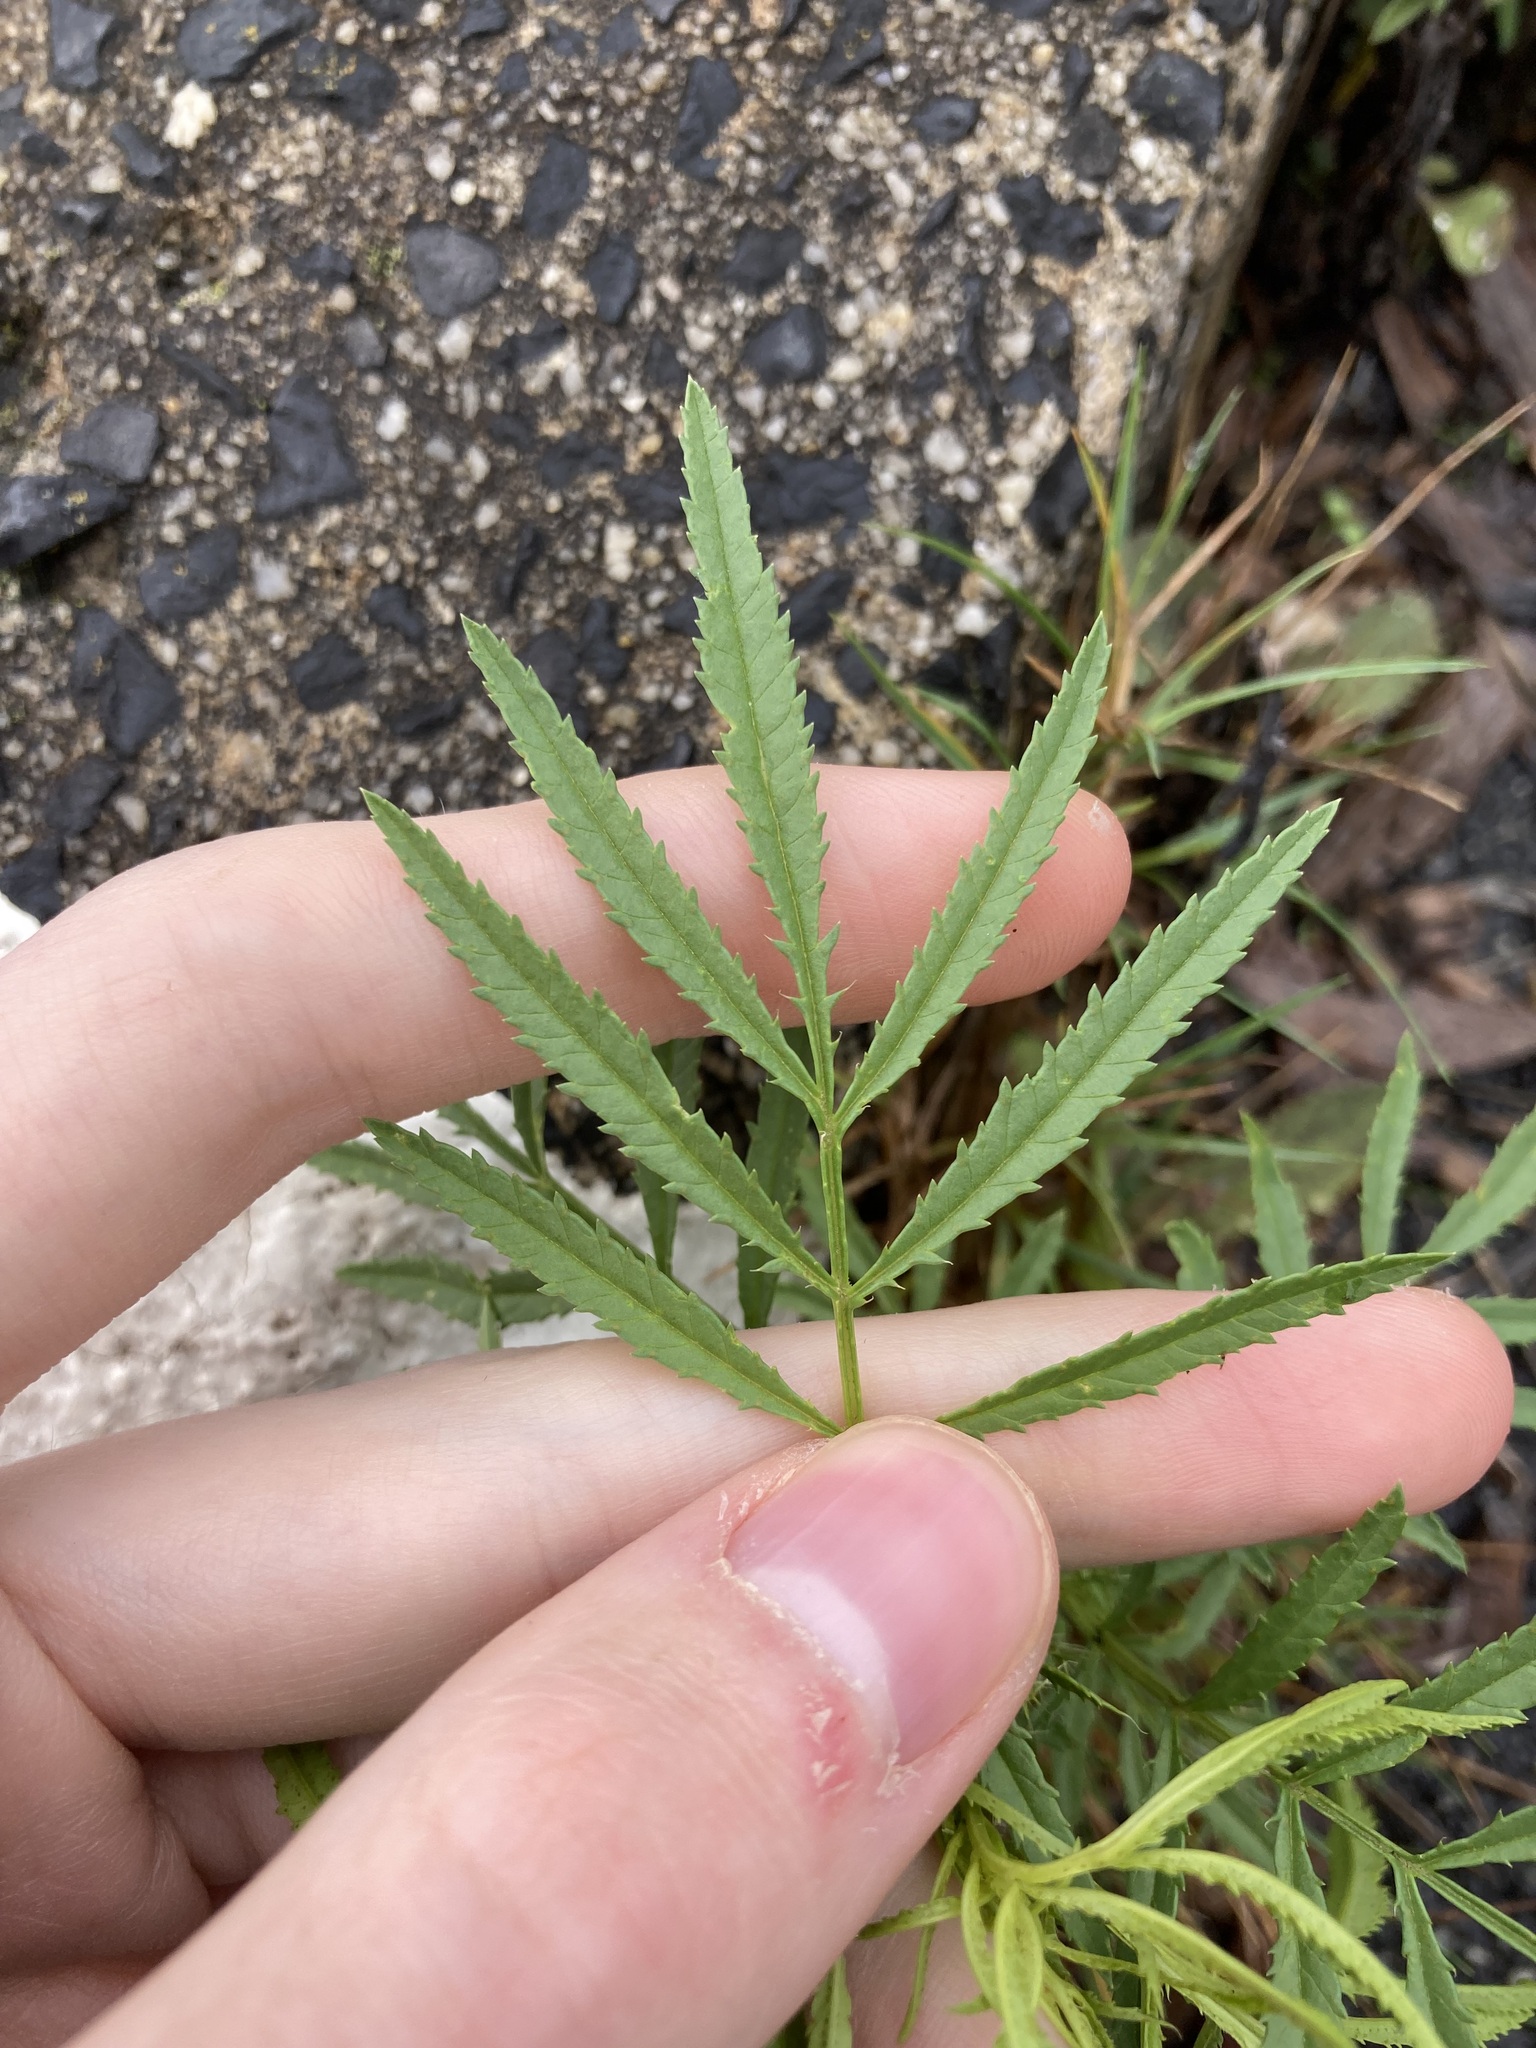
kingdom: Plantae
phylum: Tracheophyta
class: Magnoliopsida
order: Asterales
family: Asteraceae
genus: Tagetes
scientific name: Tagetes minuta
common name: Muster john henry
